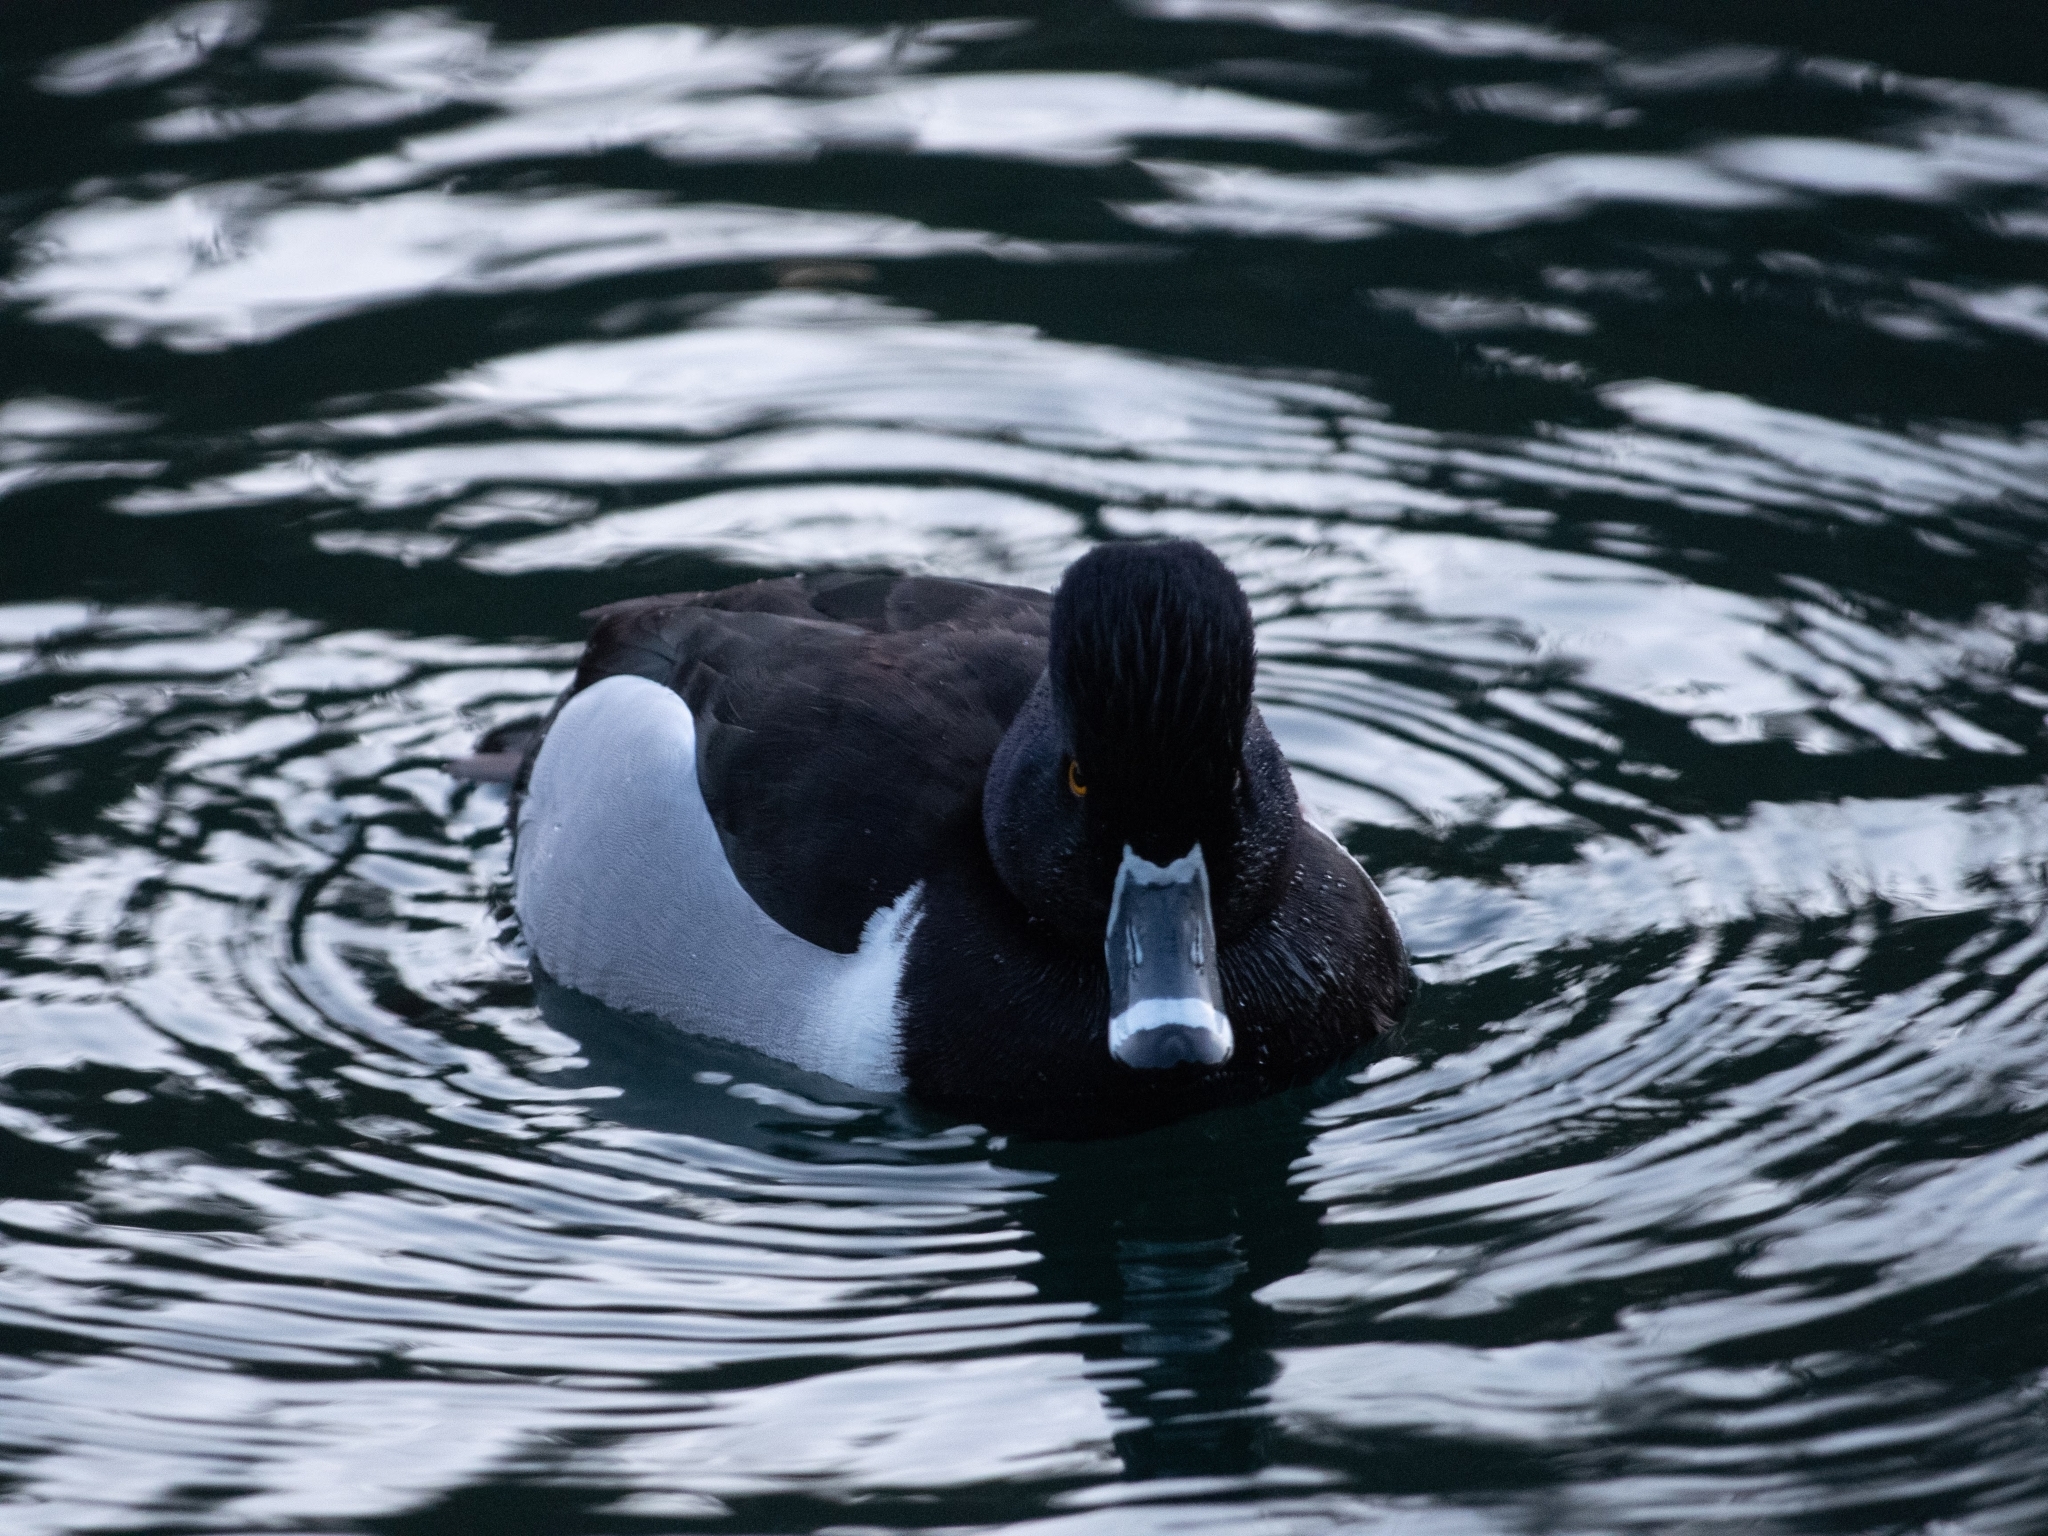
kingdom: Animalia
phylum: Chordata
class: Aves
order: Anseriformes
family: Anatidae
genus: Aythya
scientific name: Aythya collaris
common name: Ring-necked duck
